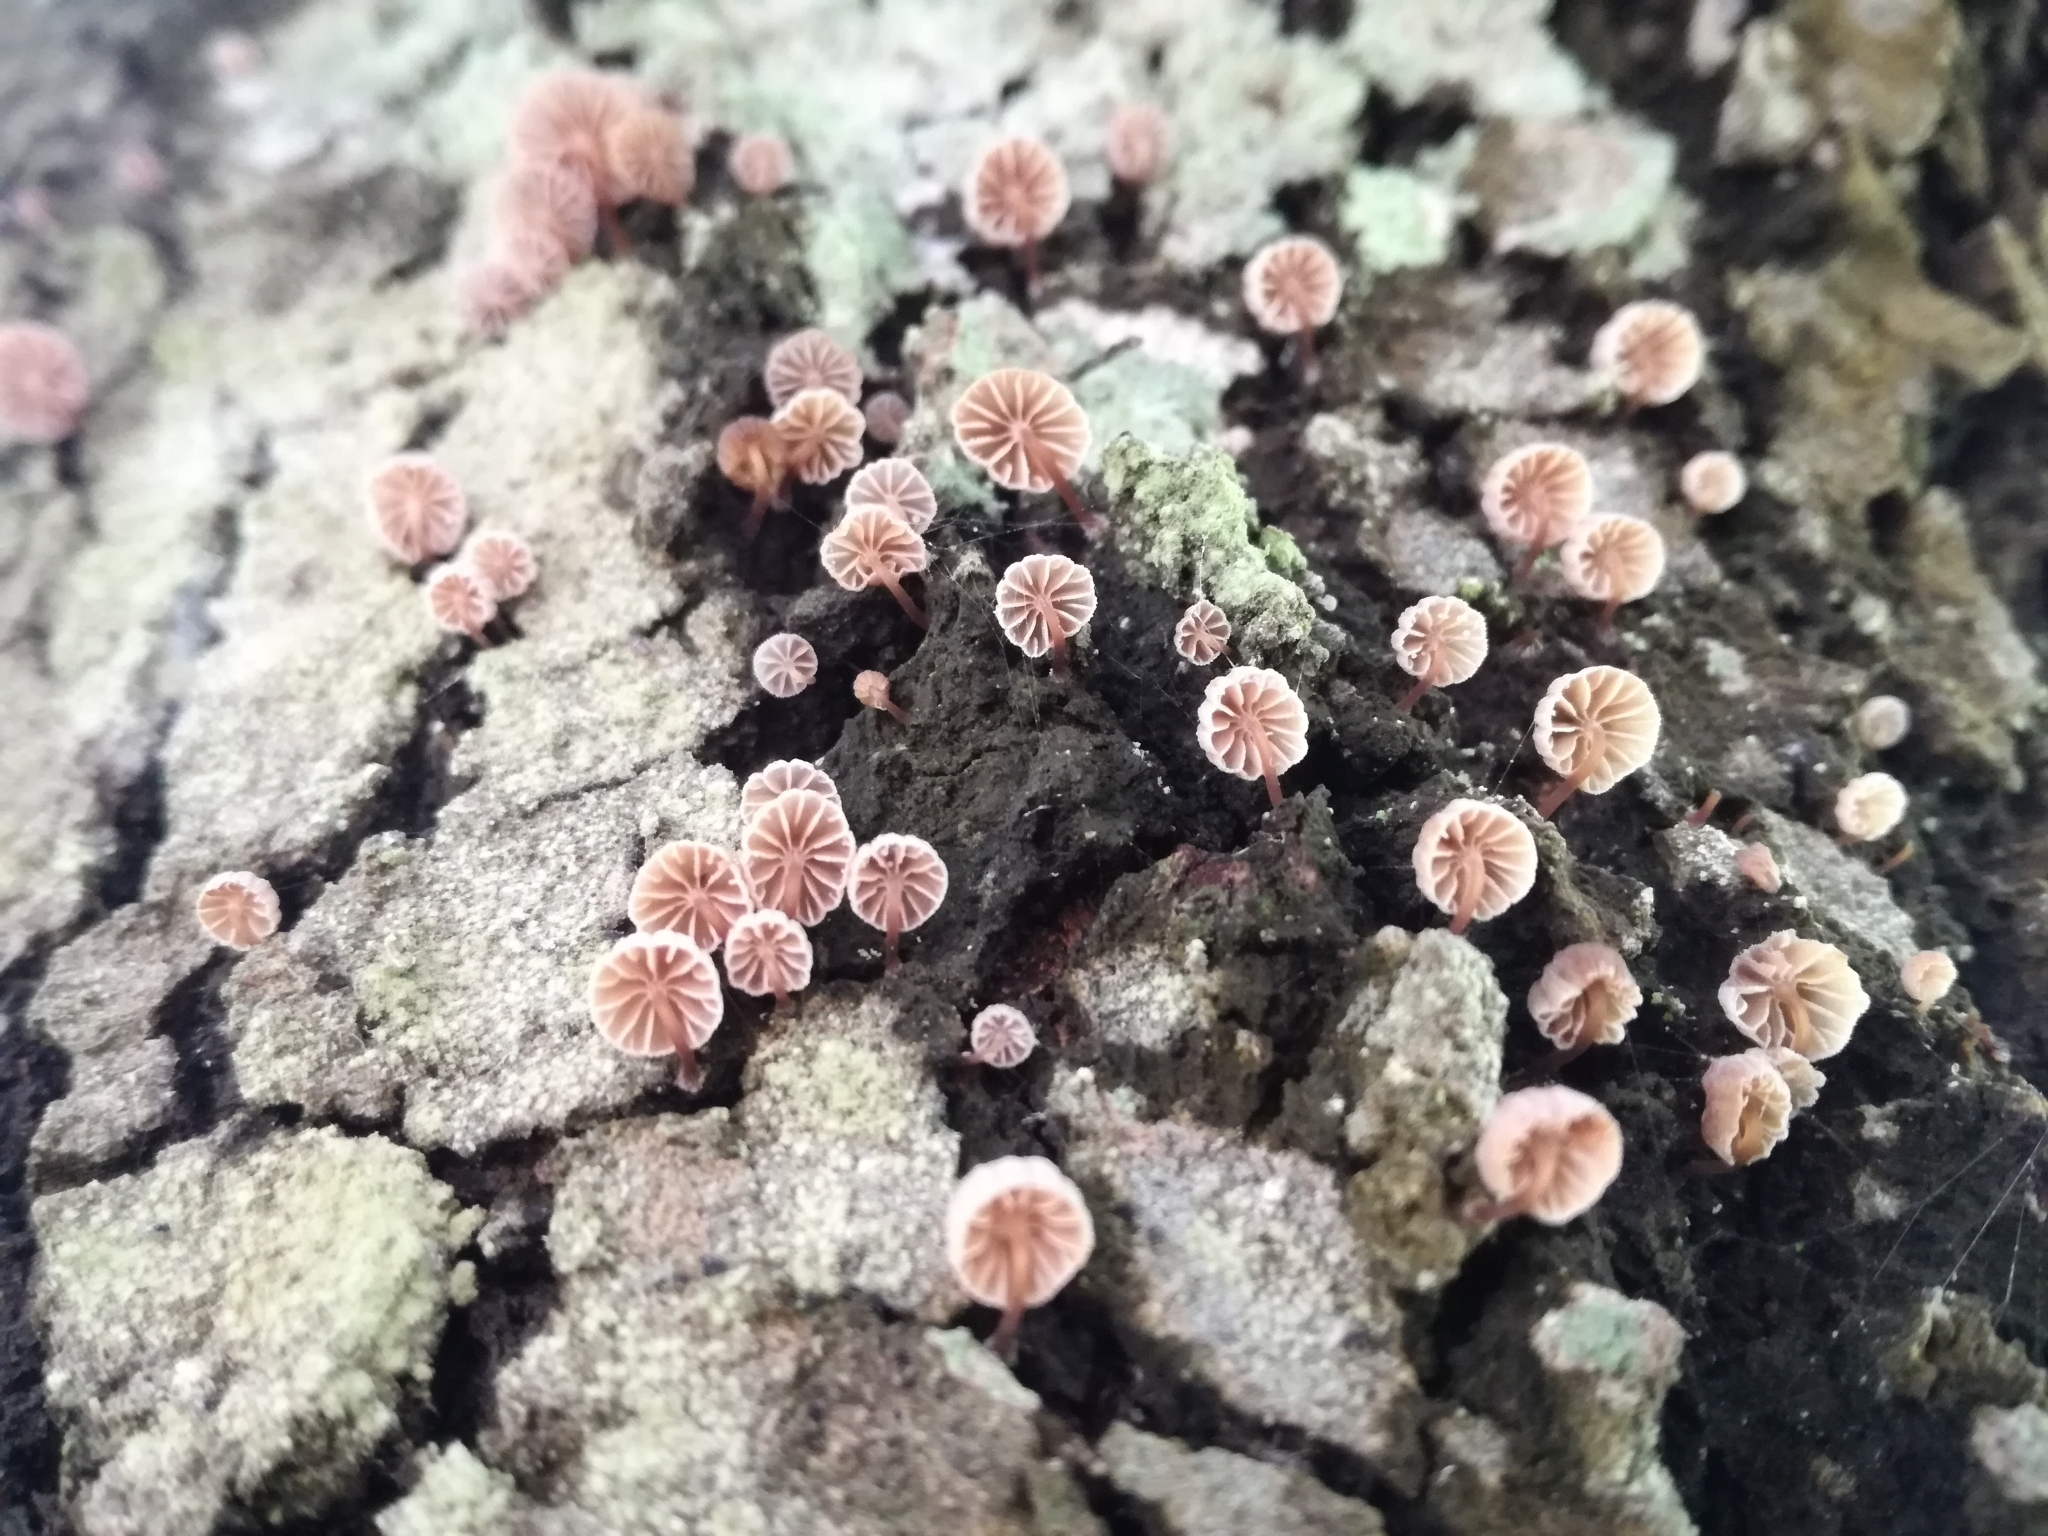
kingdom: Fungi
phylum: Basidiomycota
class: Agaricomycetes
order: Agaricales
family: Mycenaceae
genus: Mycena
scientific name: Mycena meliigena
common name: Mauve bonnet
